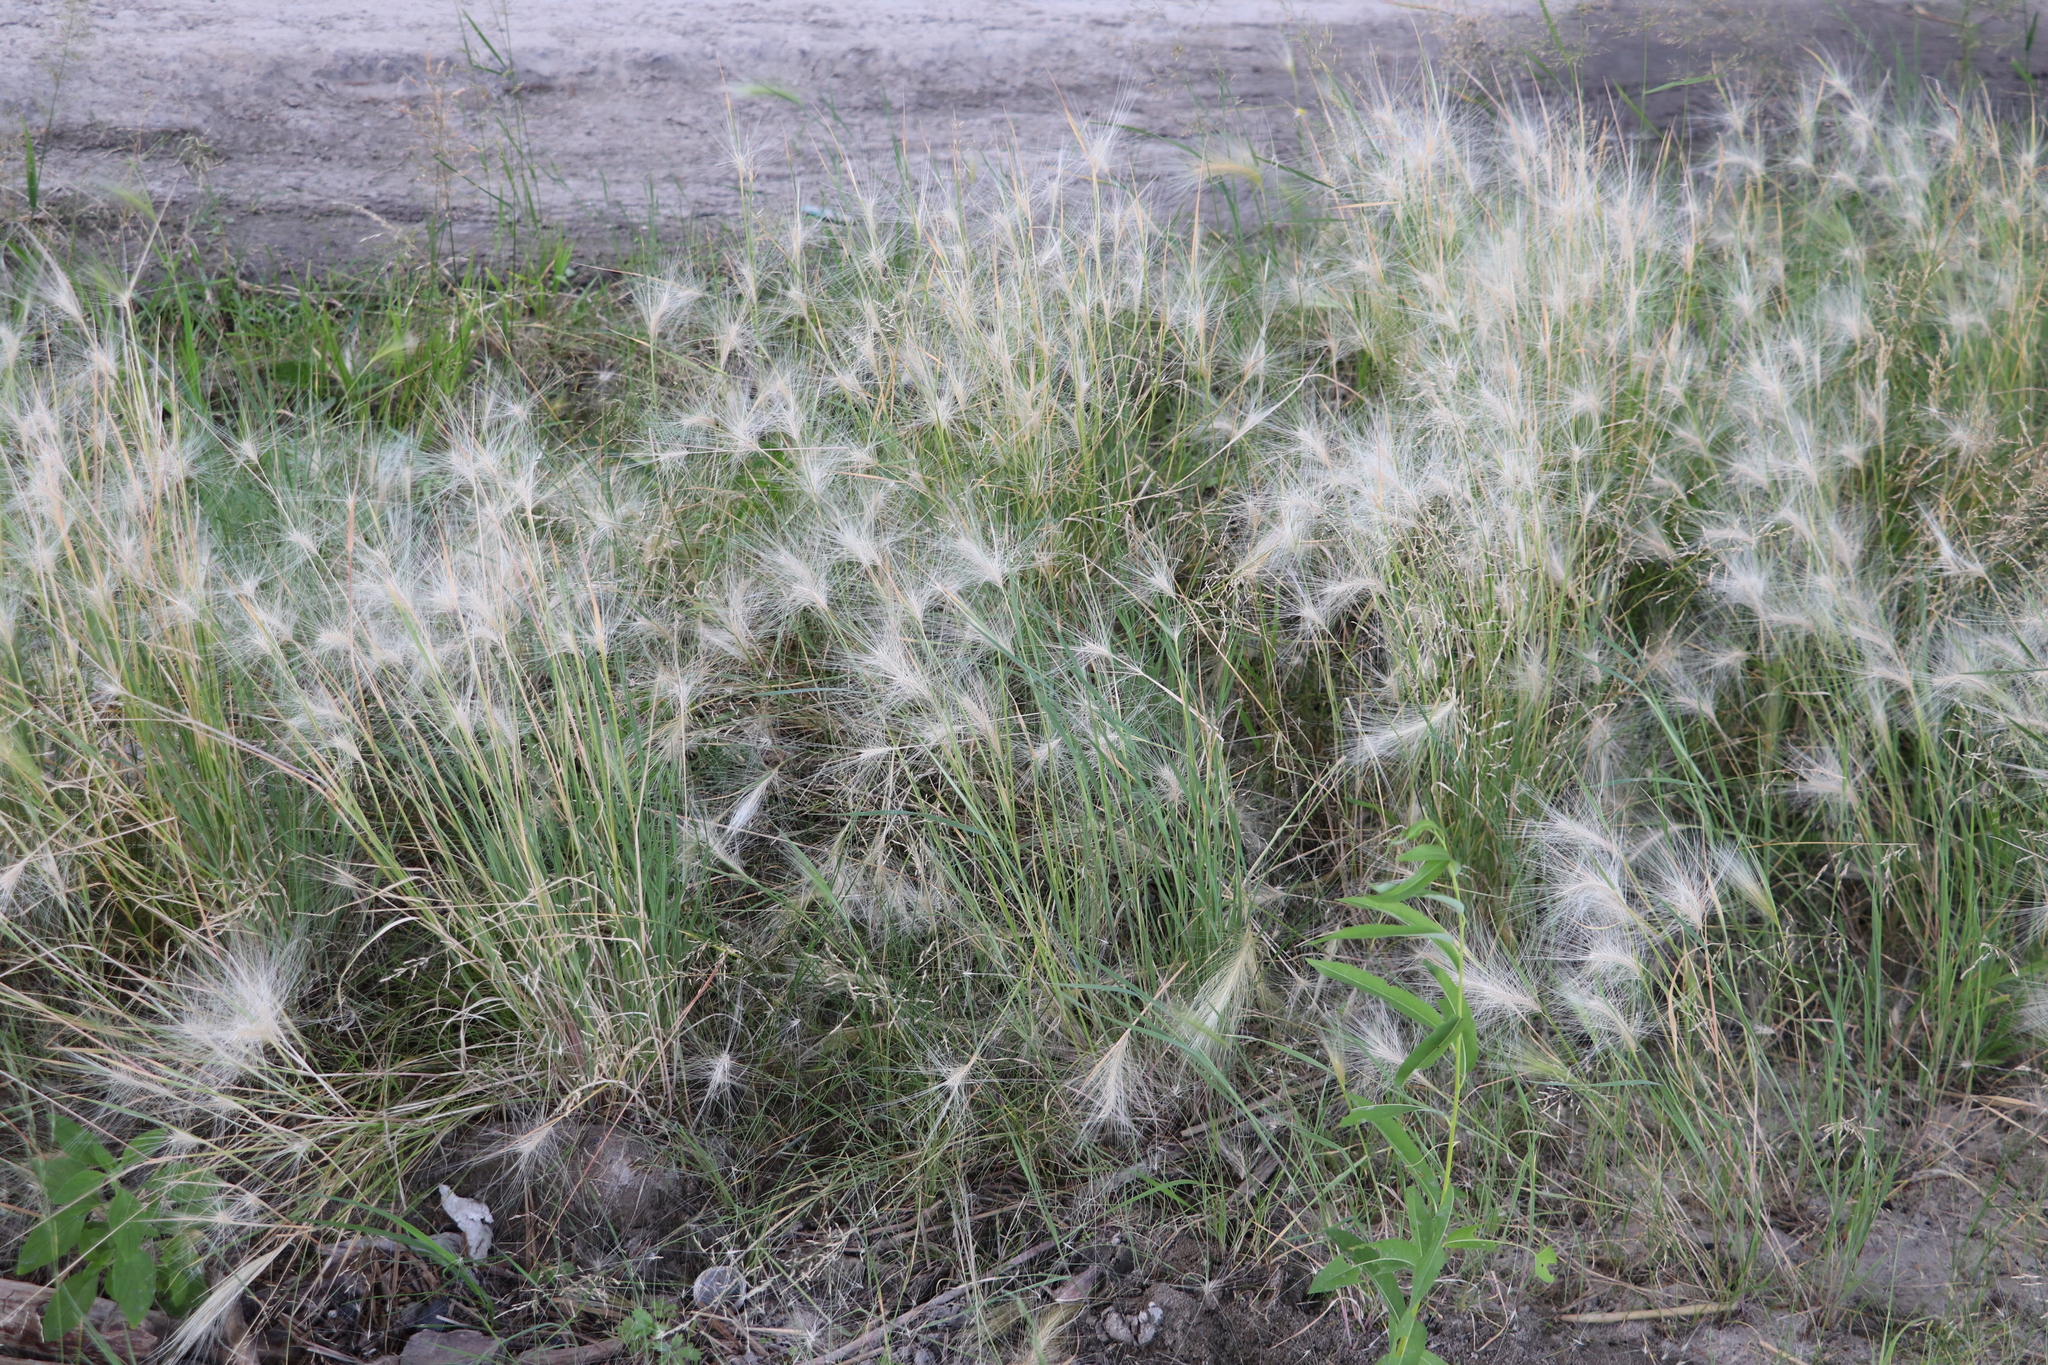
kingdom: Plantae
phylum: Tracheophyta
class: Liliopsida
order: Poales
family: Poaceae
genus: Hordeum
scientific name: Hordeum jubatum
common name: Foxtail barley
